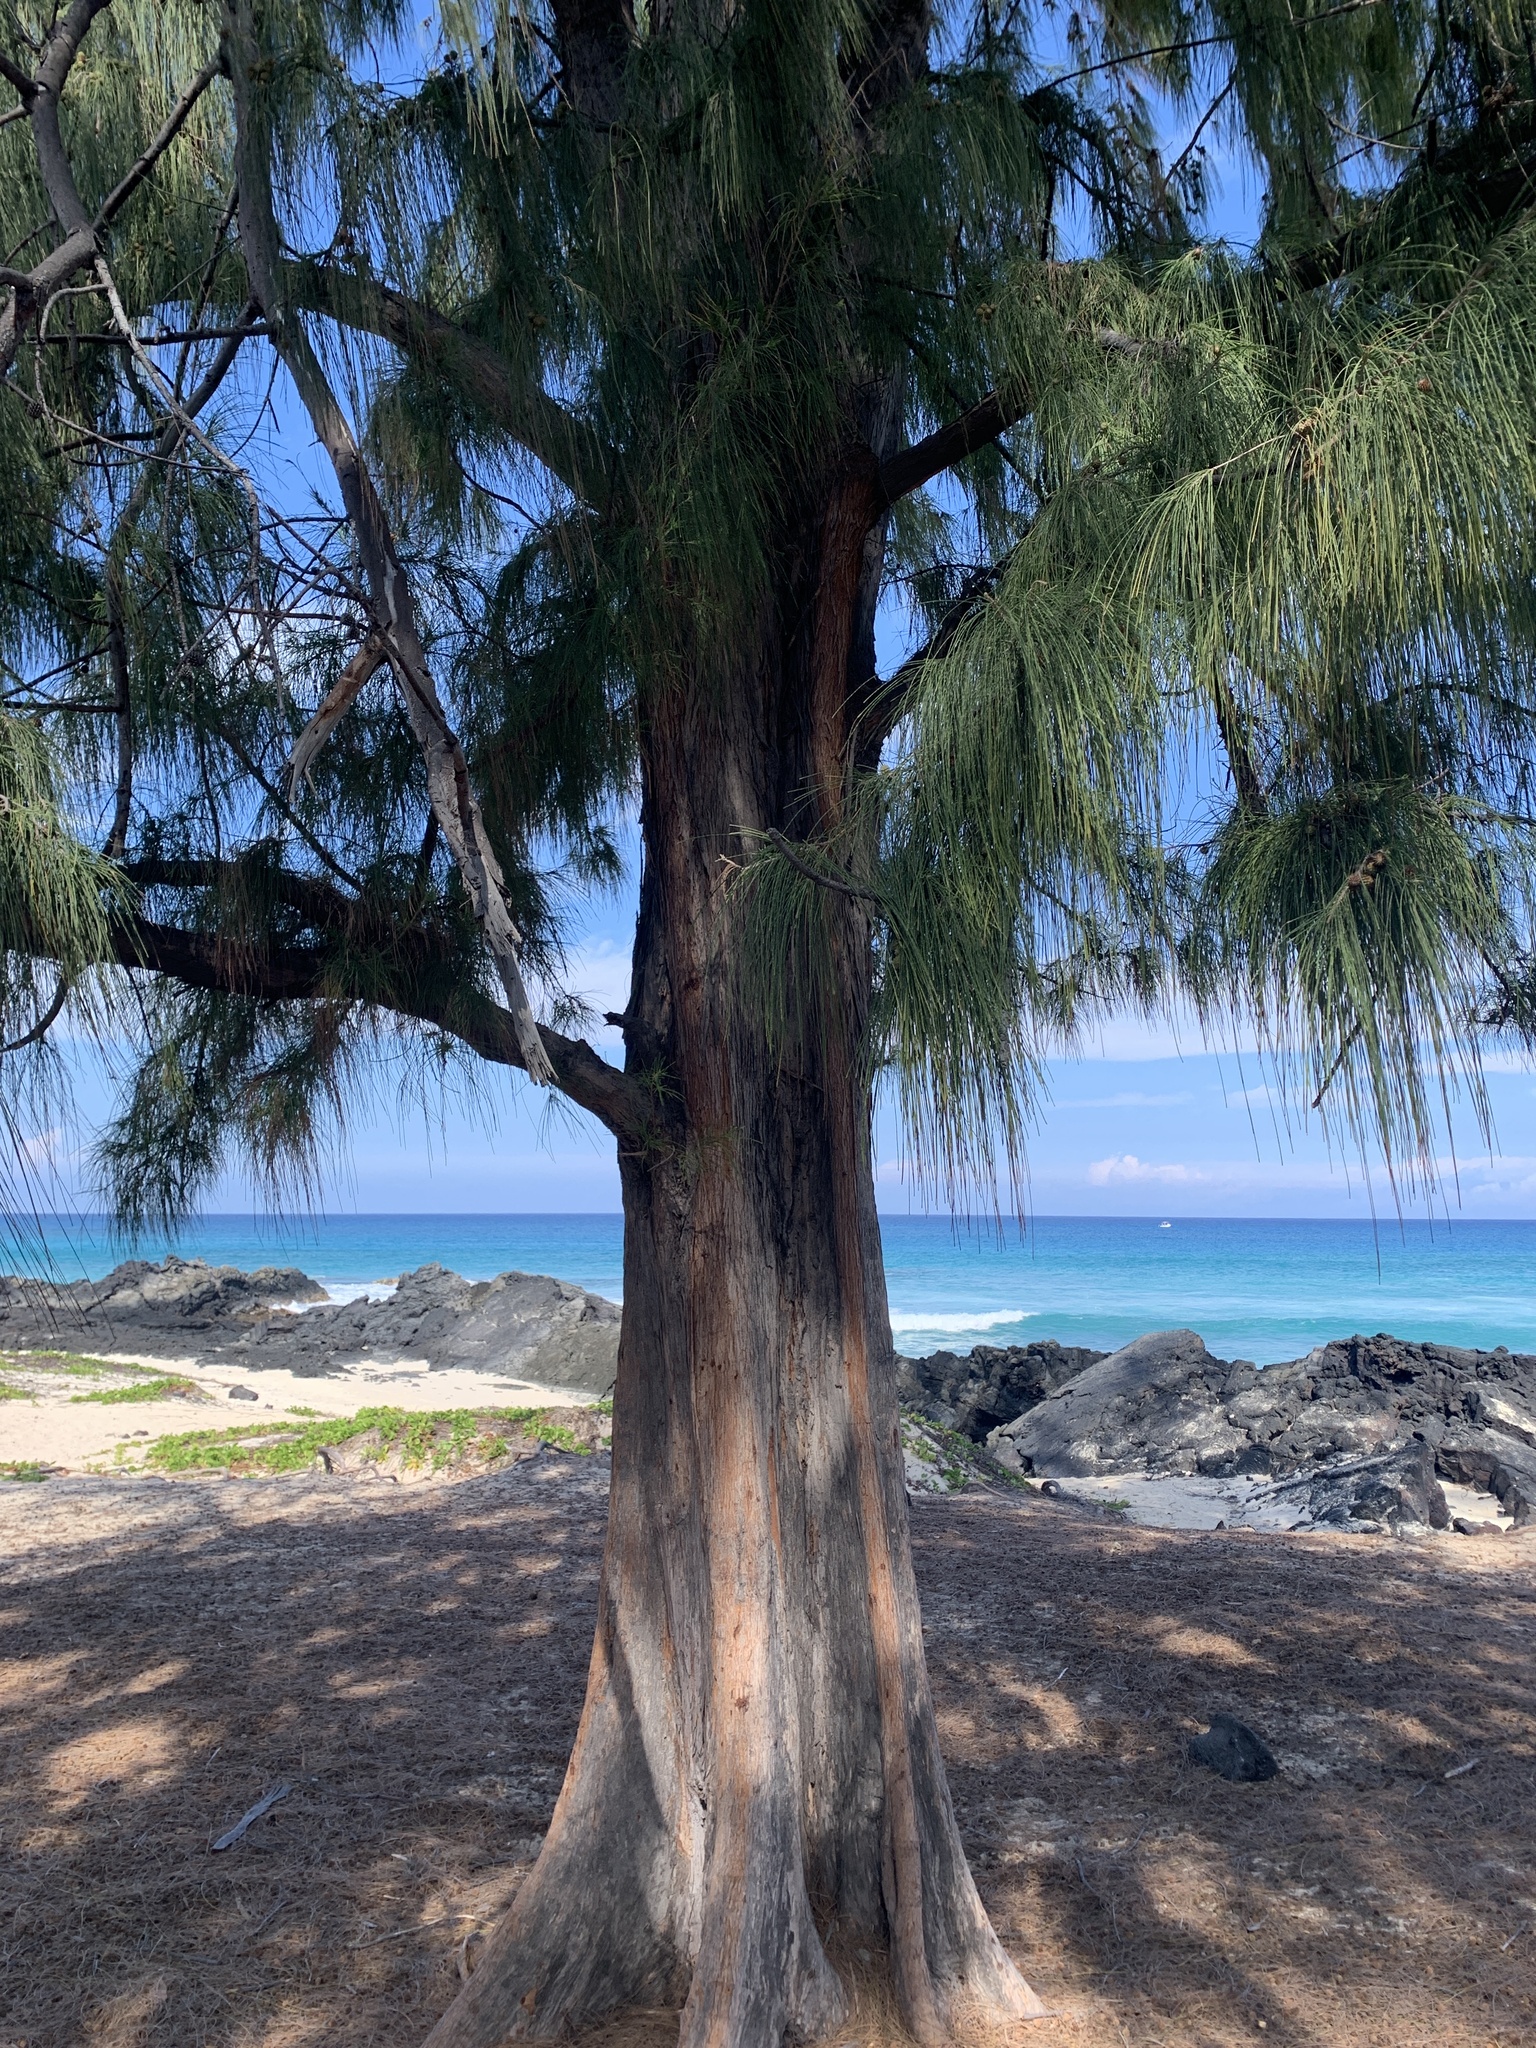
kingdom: Plantae
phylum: Tracheophyta
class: Magnoliopsida
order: Fagales
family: Casuarinaceae
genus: Casuarina
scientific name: Casuarina equisetifolia
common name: Beach sheoak
